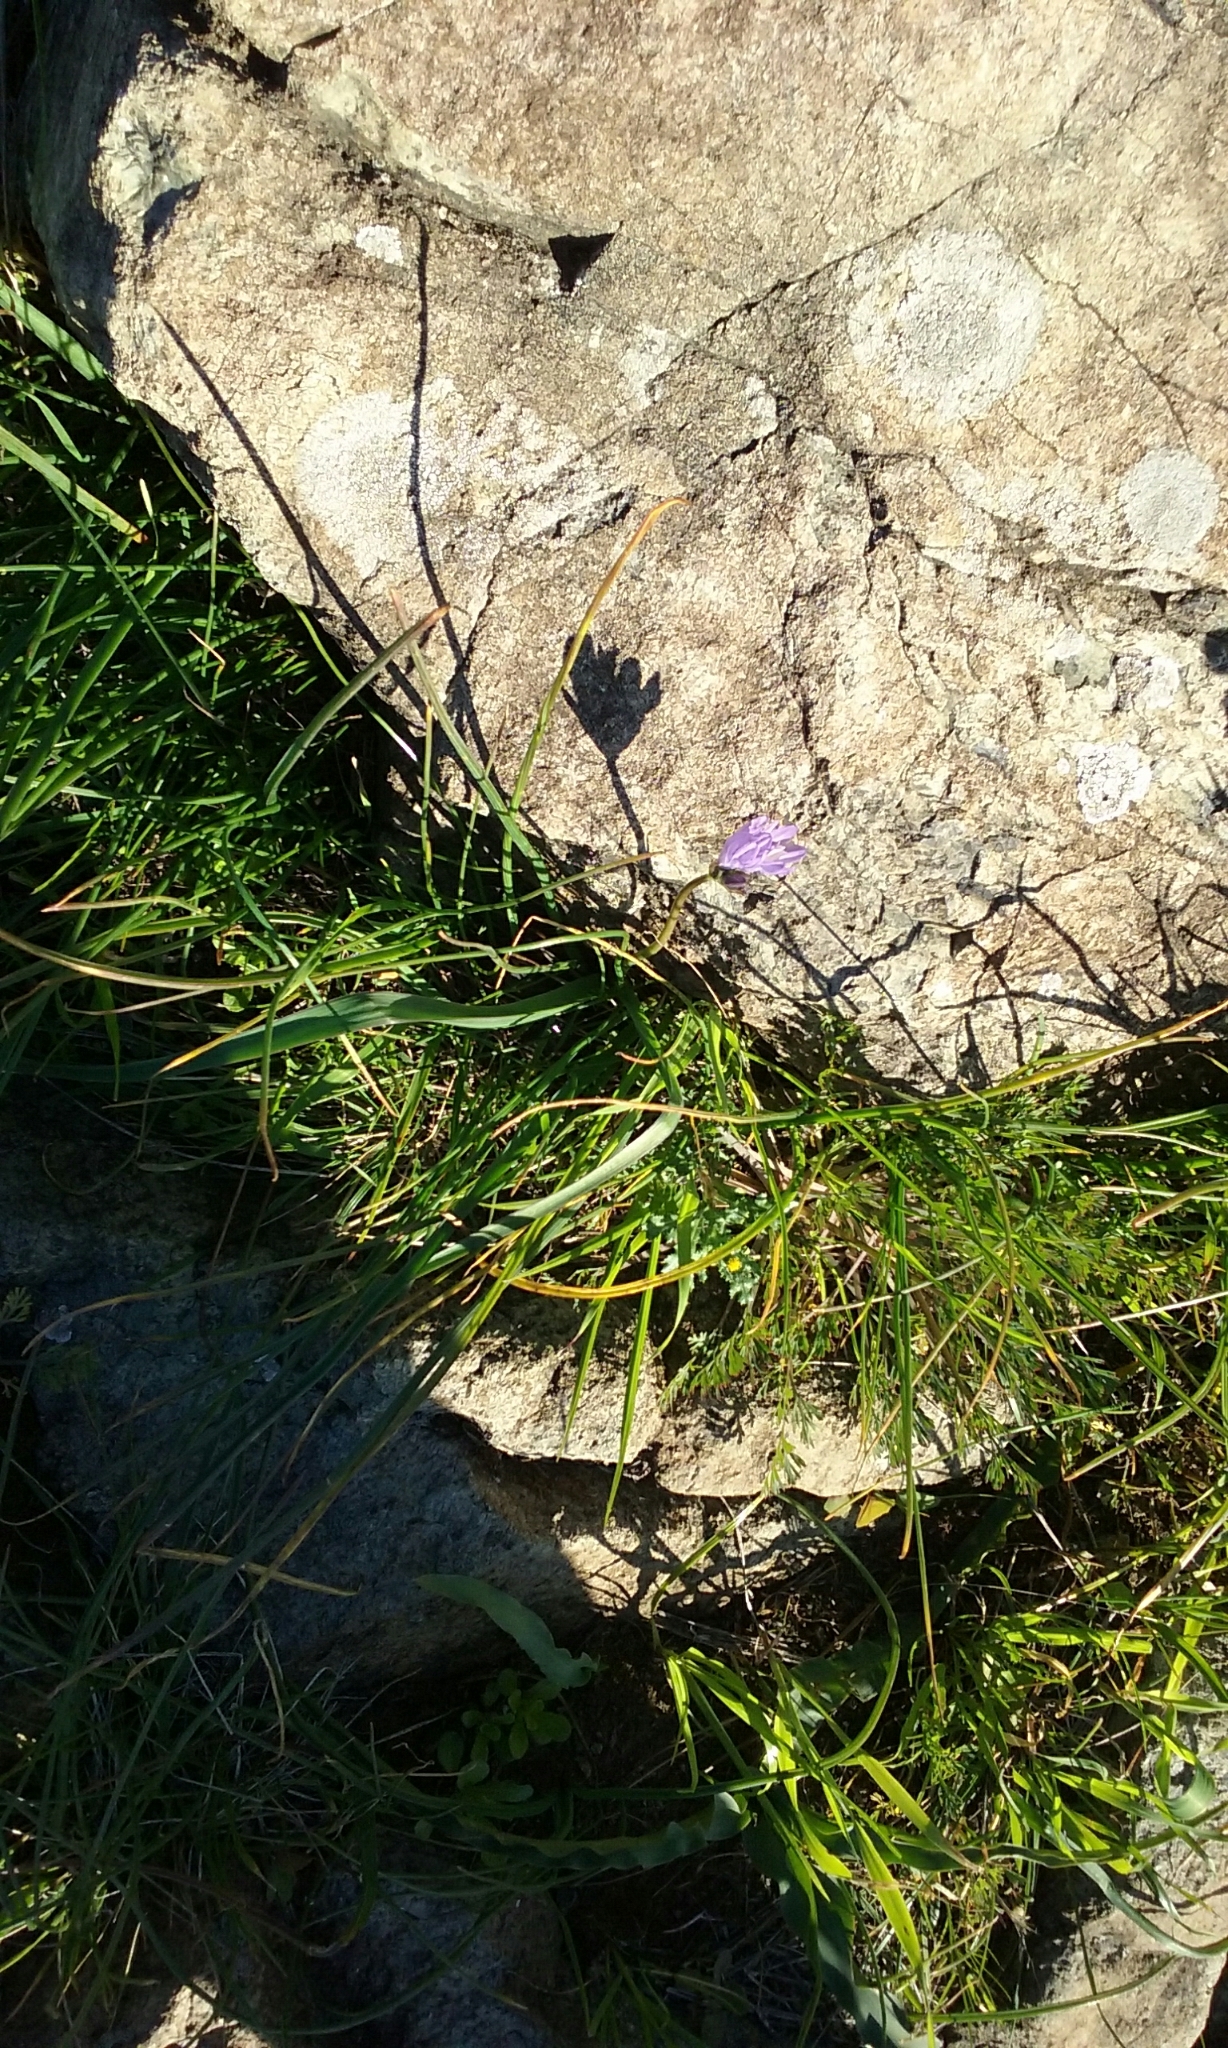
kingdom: Plantae
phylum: Tracheophyta
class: Liliopsida
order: Asparagales
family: Asparagaceae
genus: Dipterostemon
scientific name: Dipterostemon capitatus
